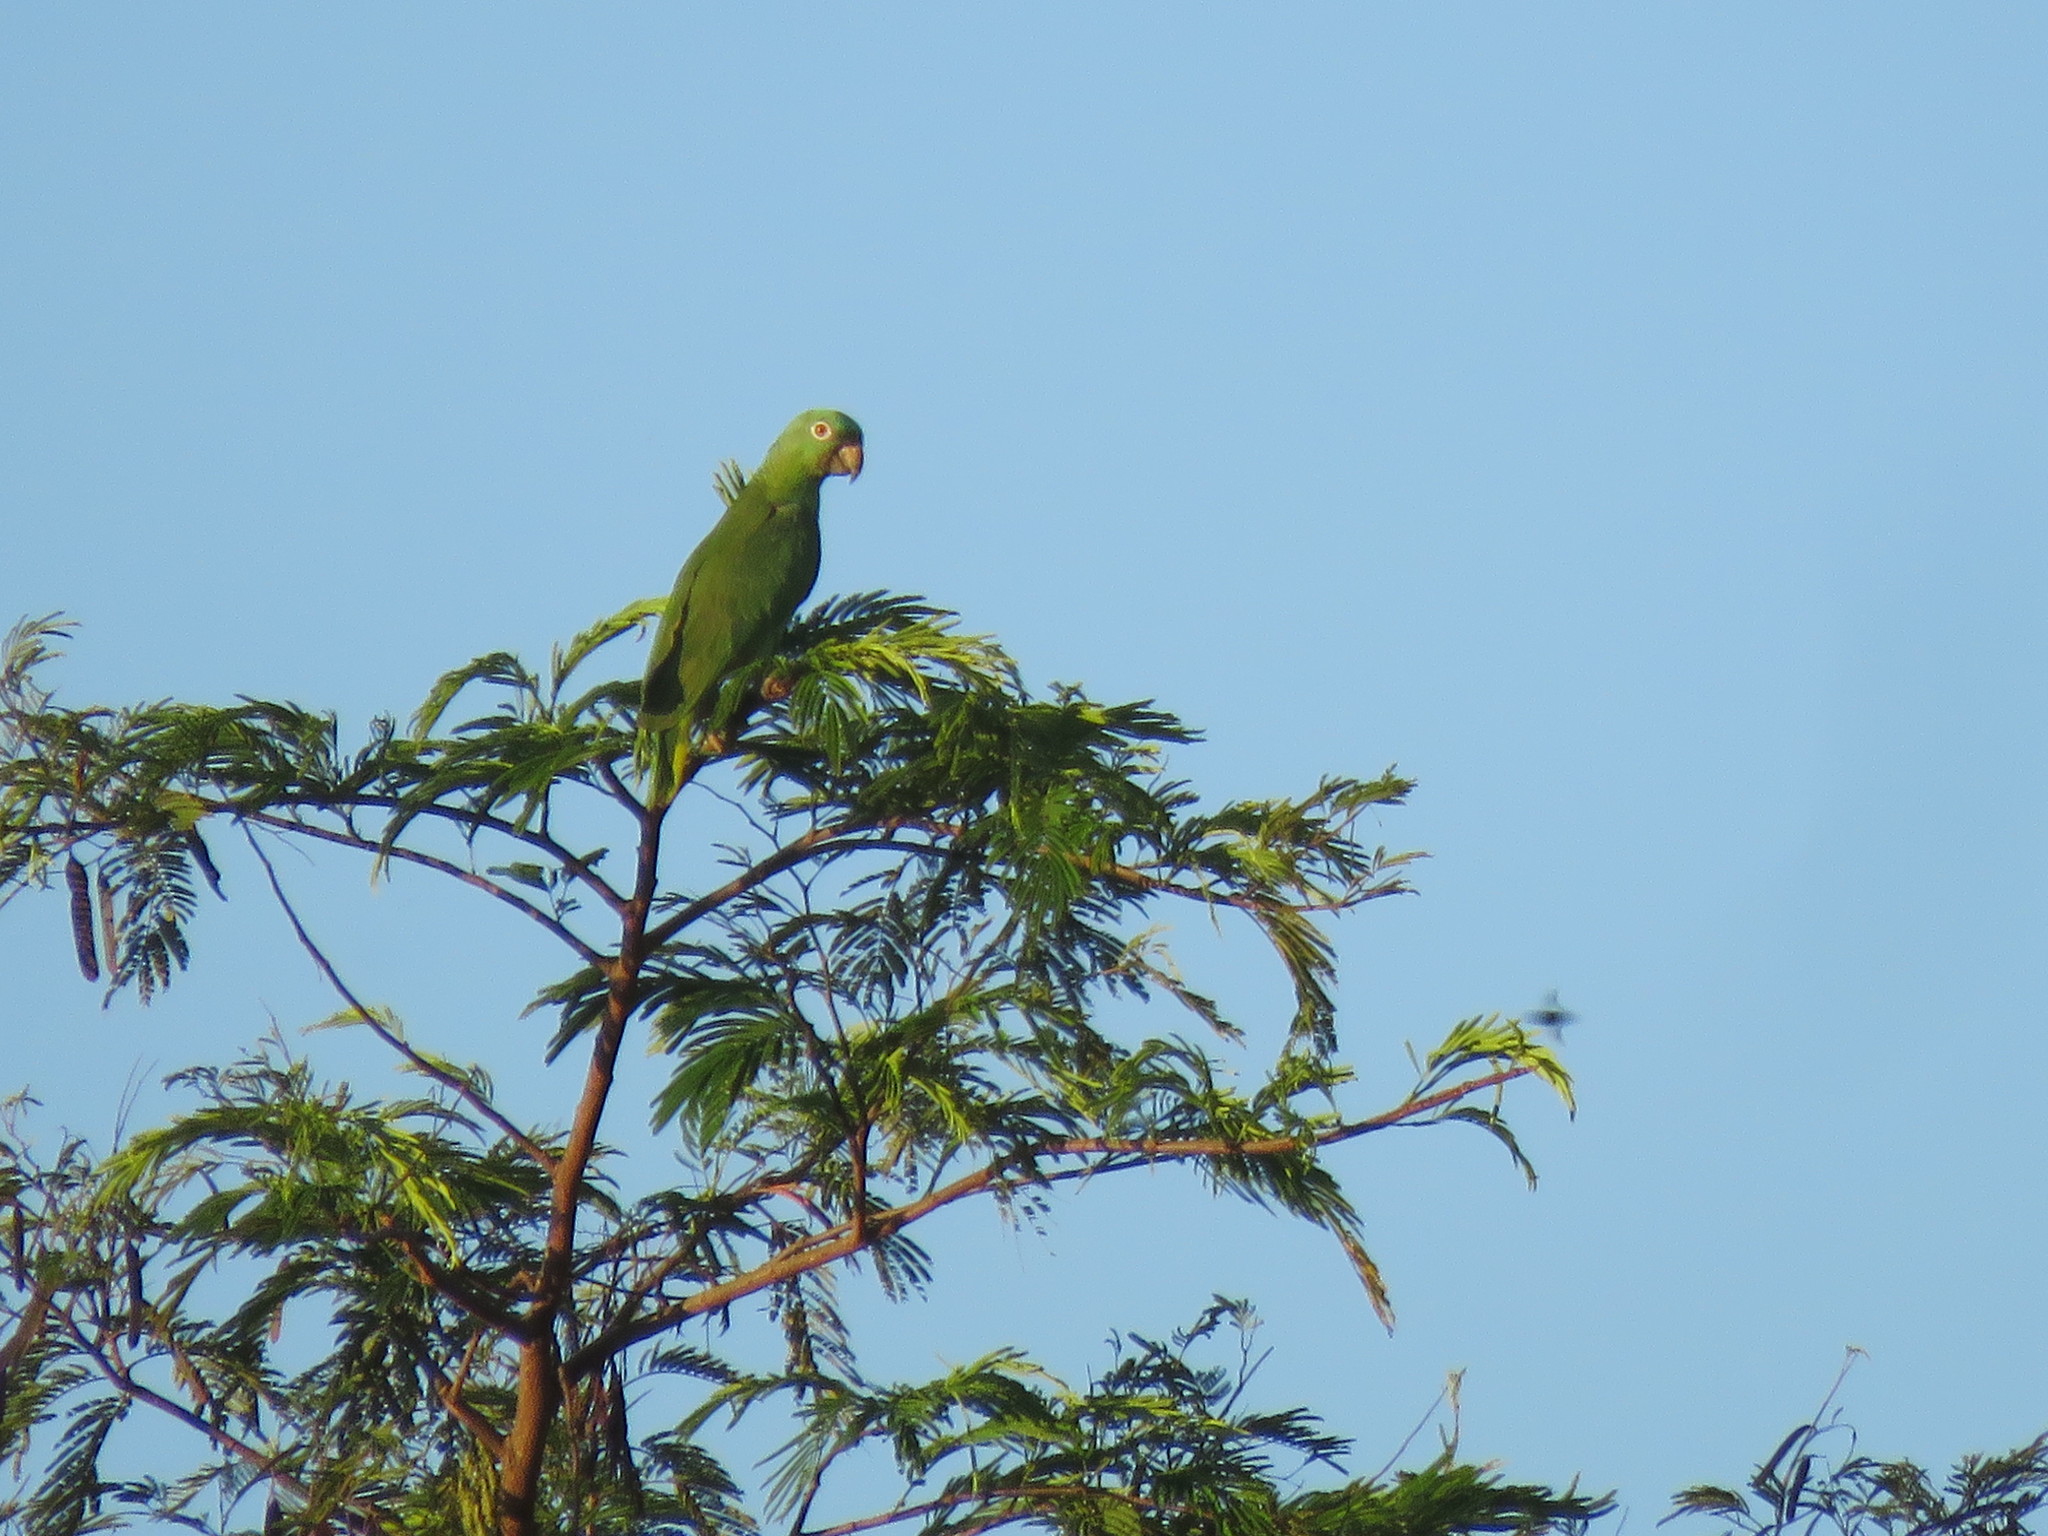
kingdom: Animalia
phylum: Chordata
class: Aves
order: Psittaciformes
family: Psittacidae
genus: Amazona
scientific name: Amazona farinosa
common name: Mealy parrot
